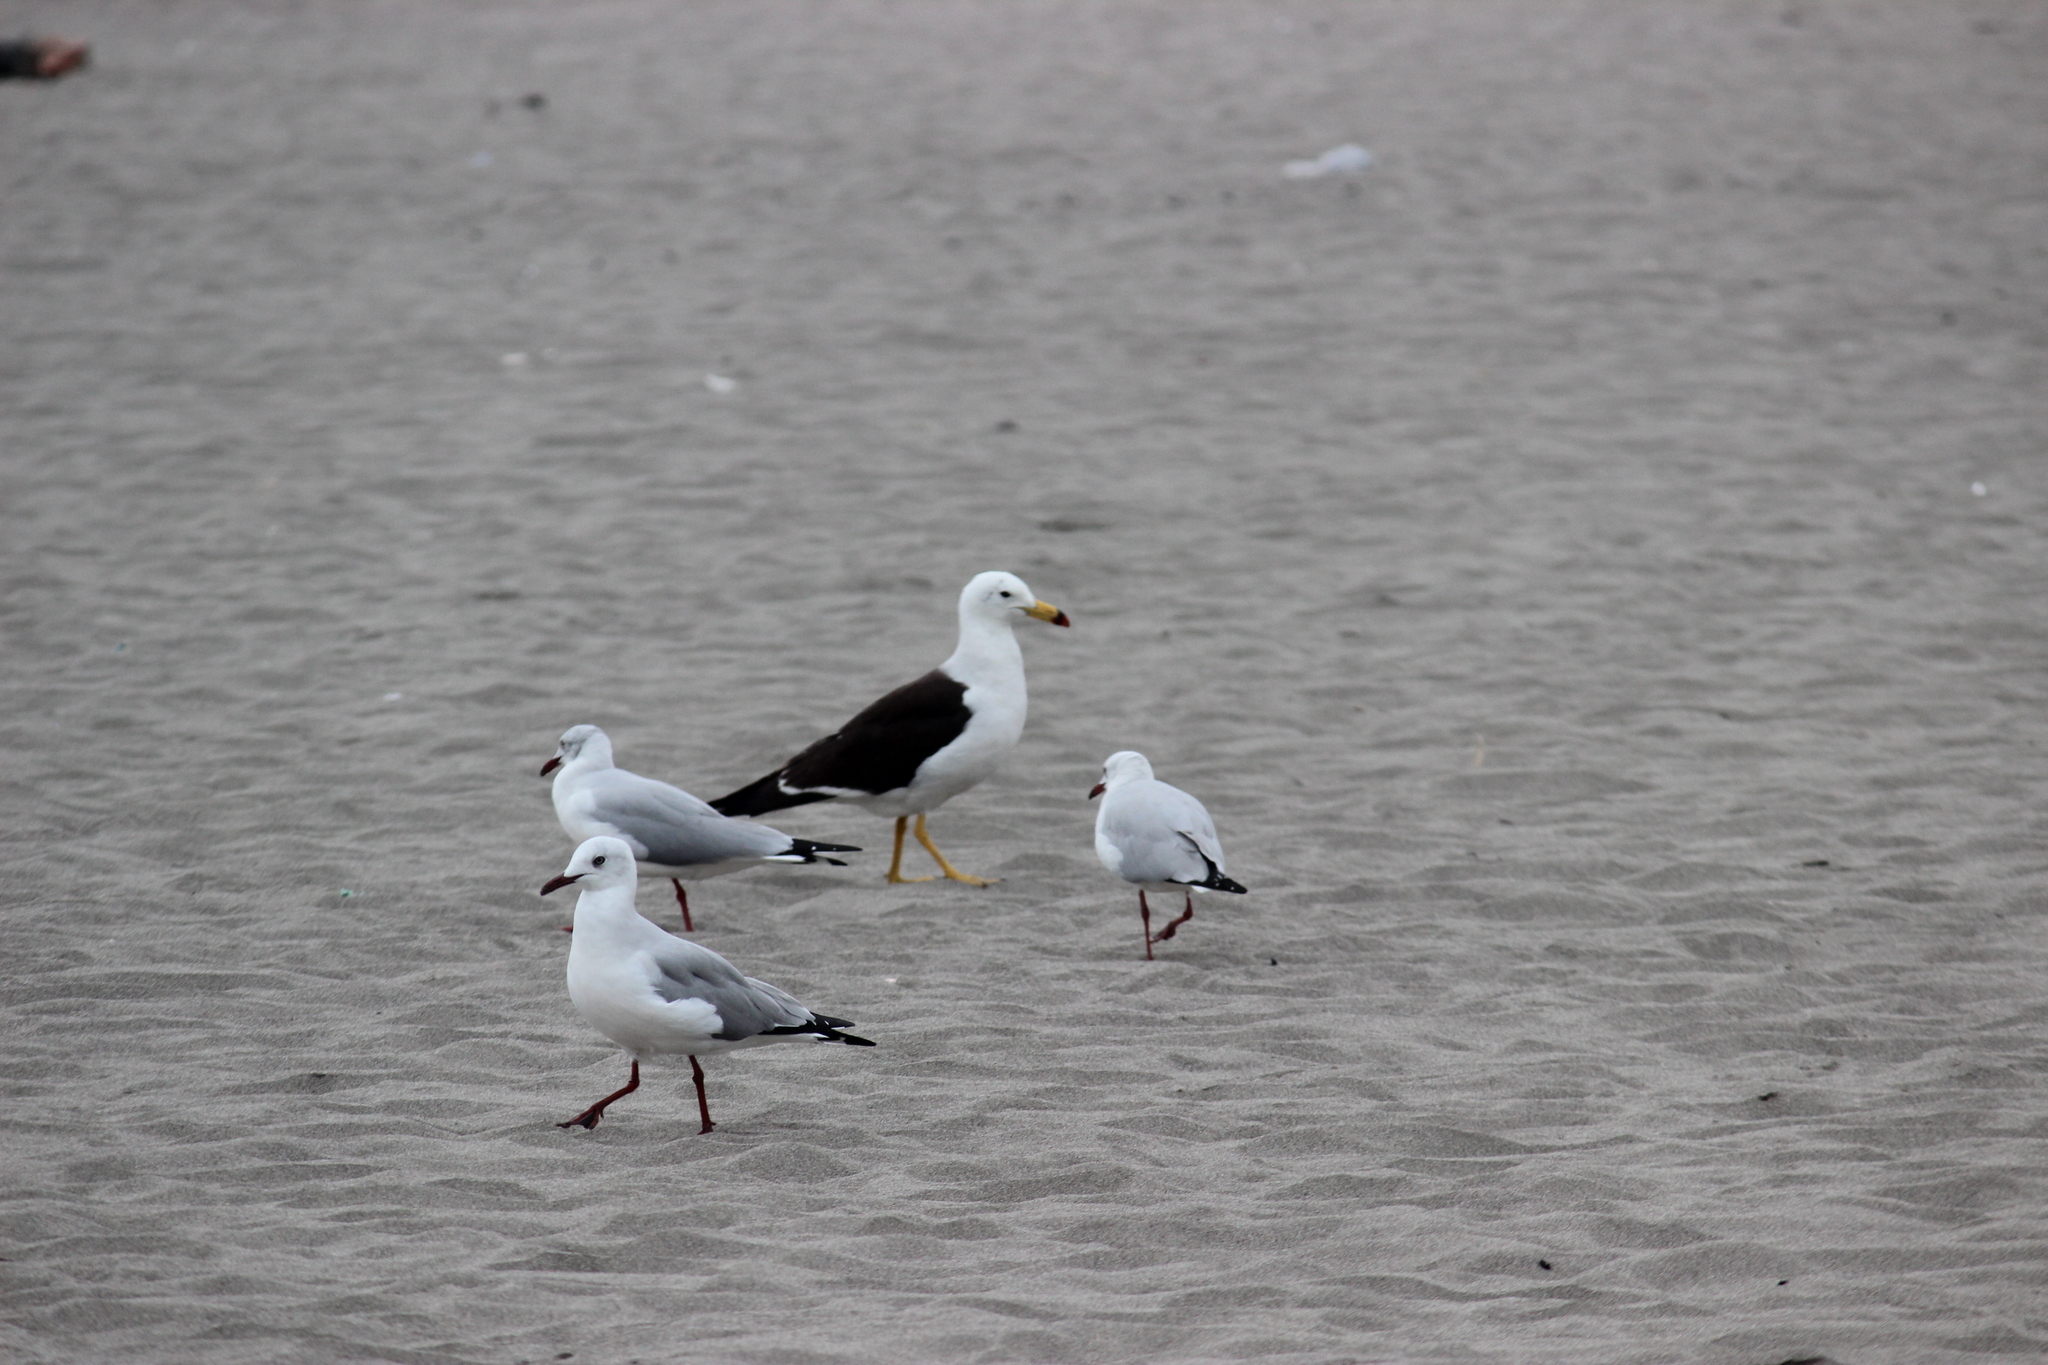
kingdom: Animalia
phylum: Chordata
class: Aves
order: Charadriiformes
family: Laridae
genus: Larus
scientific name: Larus belcheri
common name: Belcher's gull
